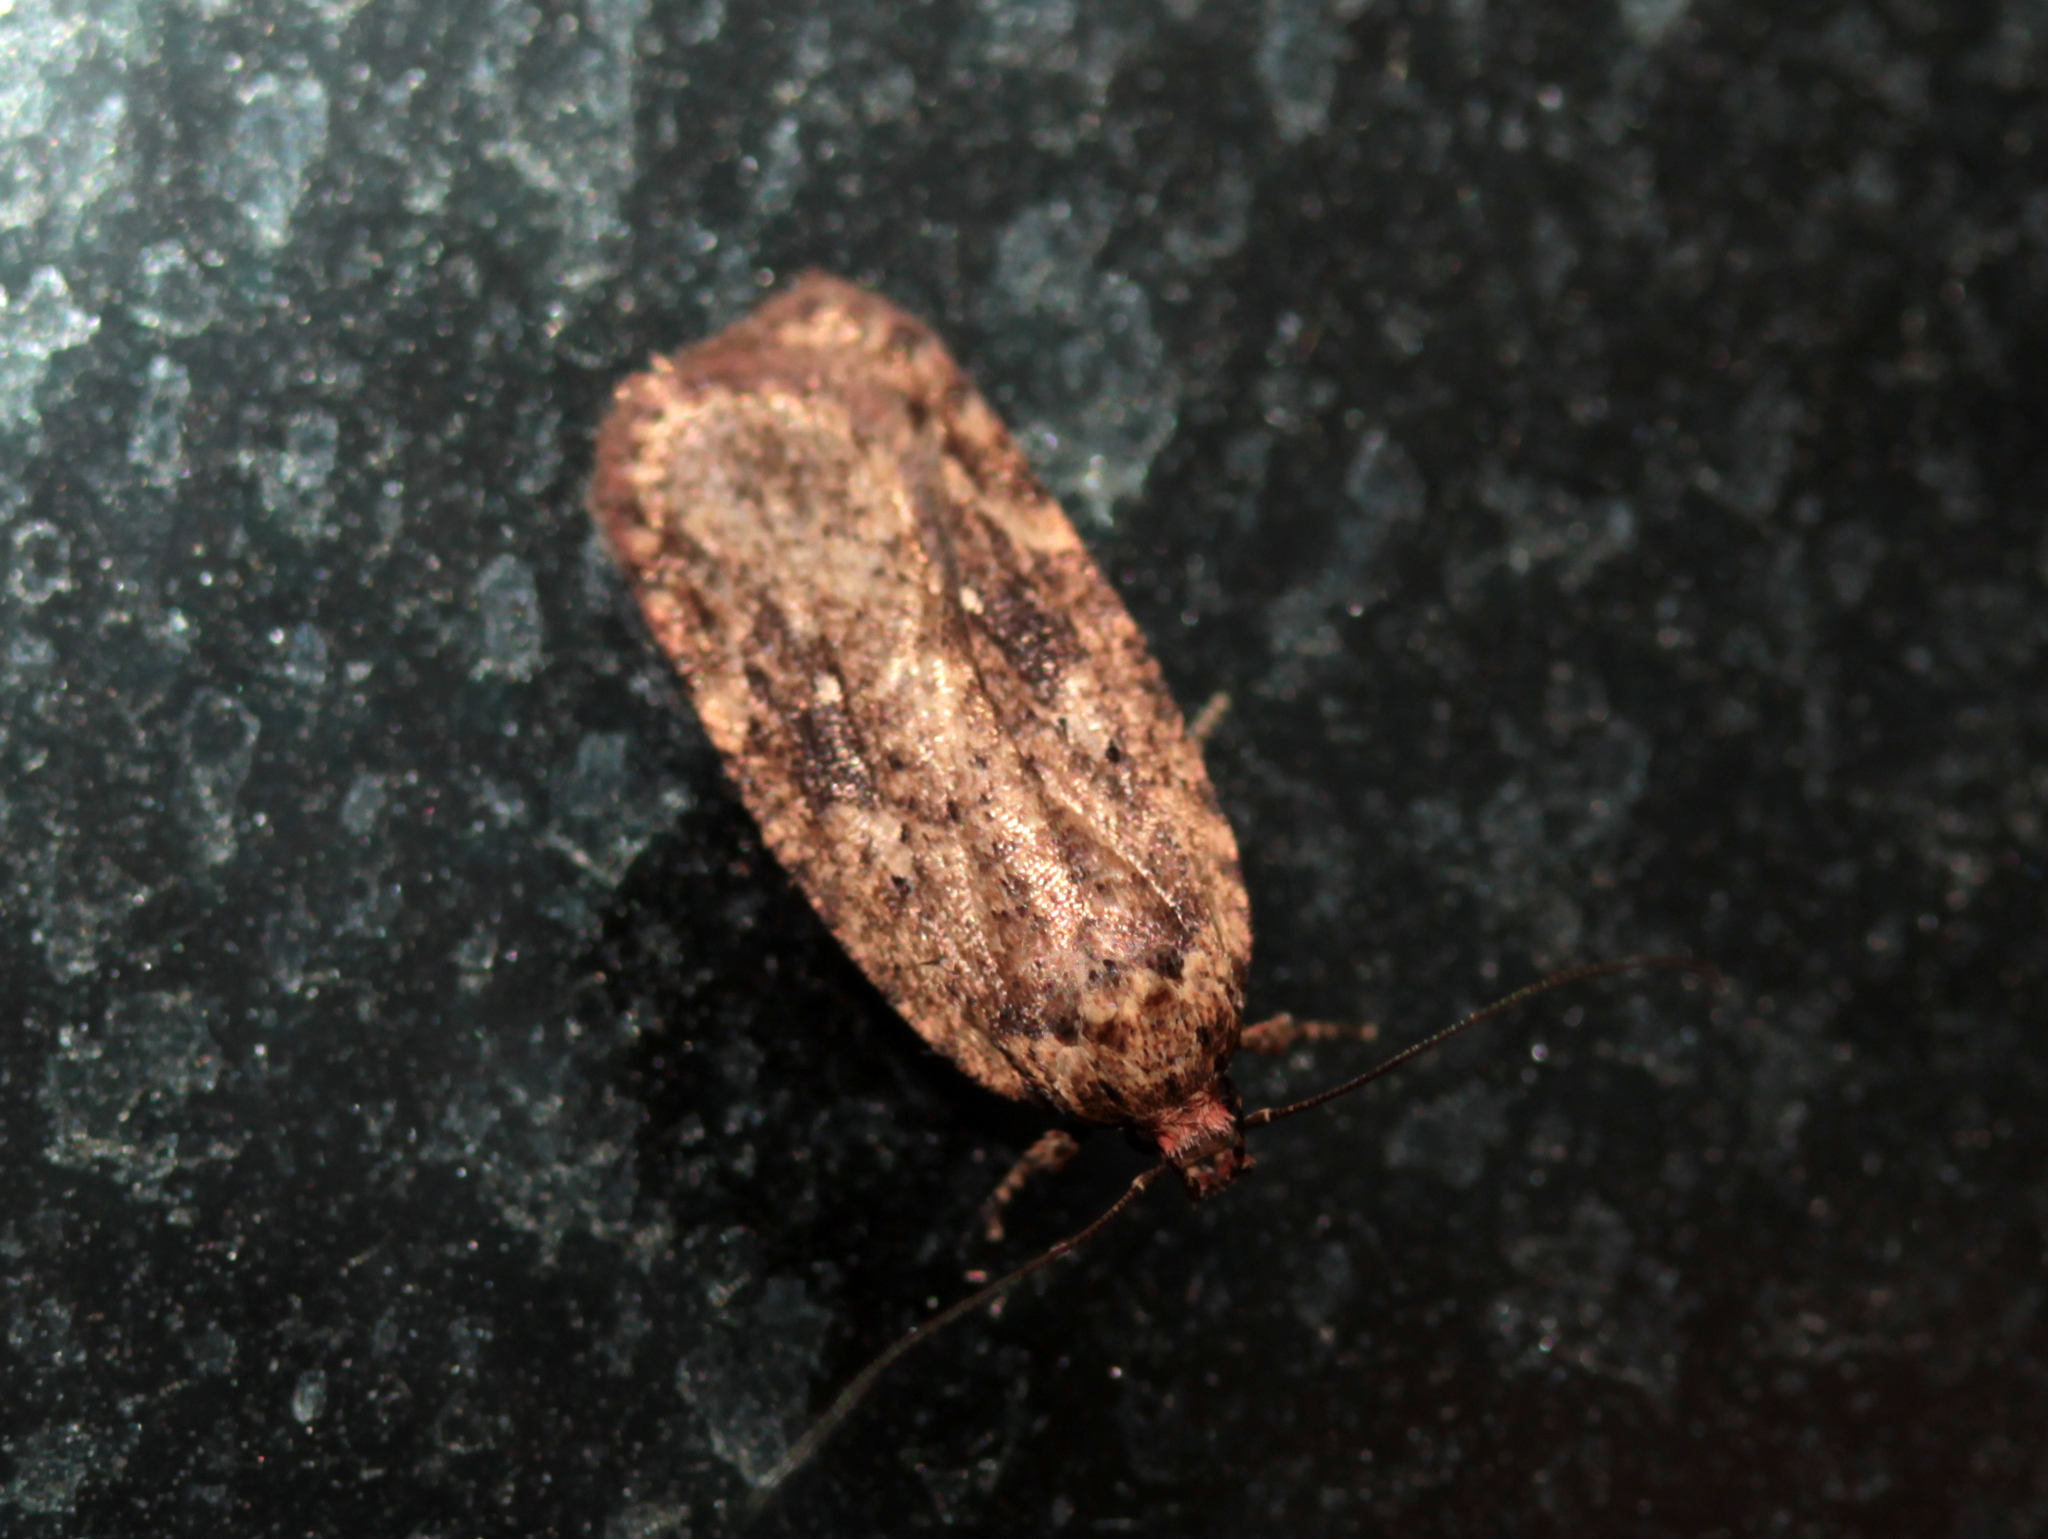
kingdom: Animalia
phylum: Arthropoda
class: Insecta
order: Lepidoptera
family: Depressariidae
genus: Agonopterix
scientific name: Agonopterix pulvipennella
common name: Goldenrod leafffolder
